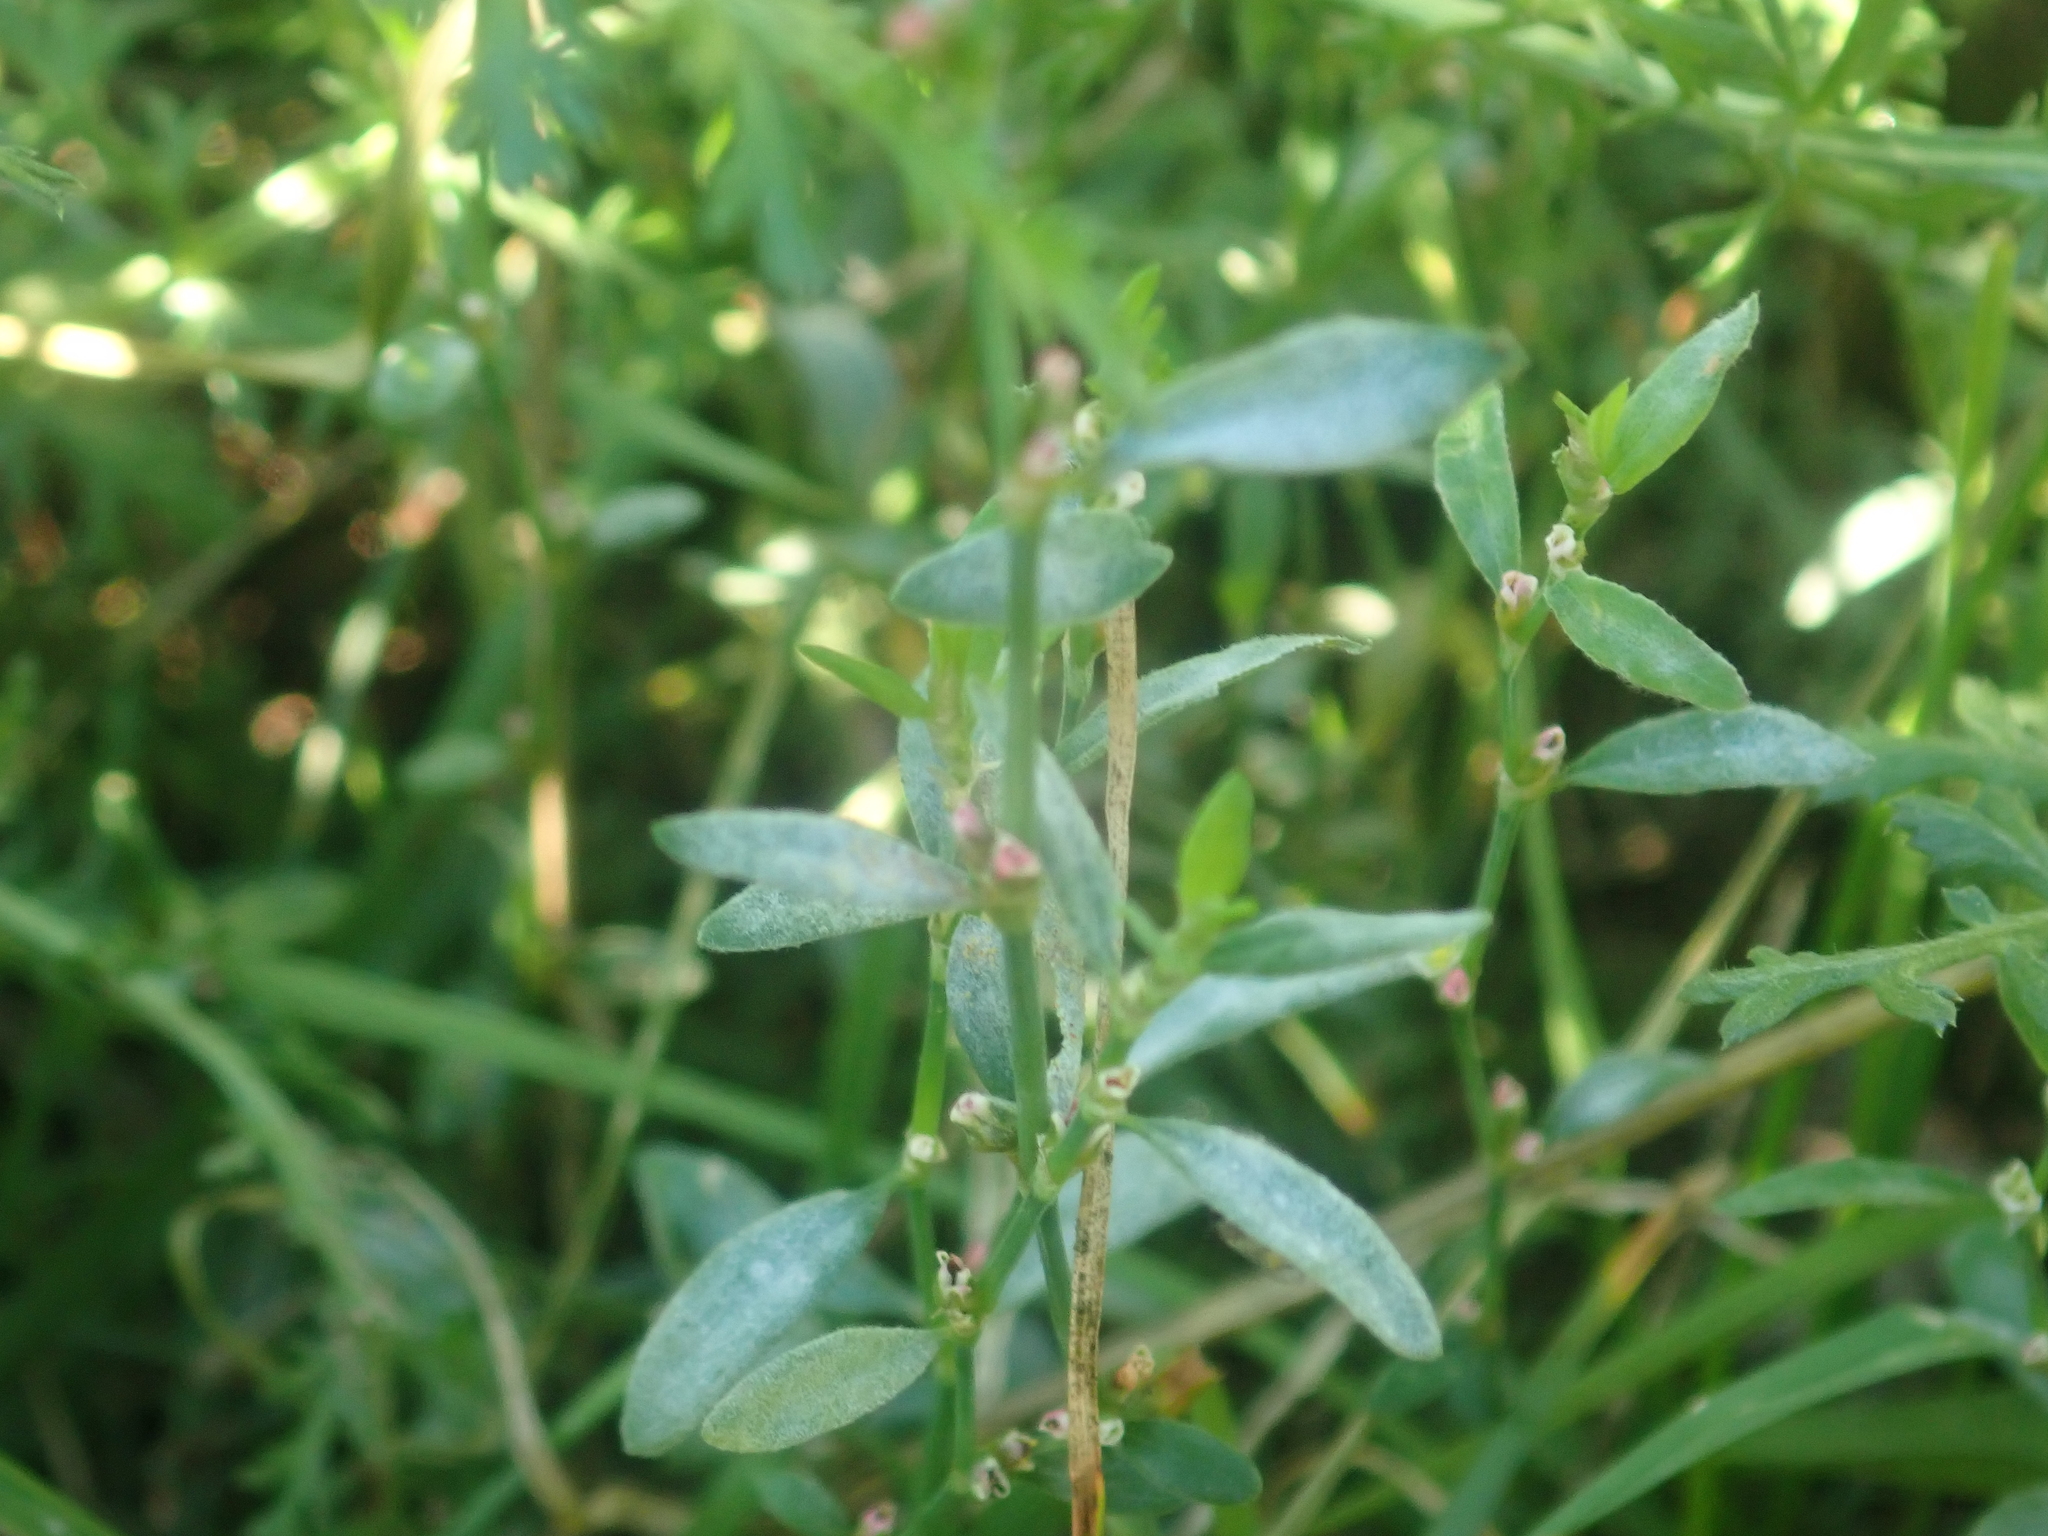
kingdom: Fungi
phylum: Ascomycota
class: Leotiomycetes
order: Helotiales
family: Erysiphaceae
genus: Erysiphe
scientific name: Erysiphe polygoni
